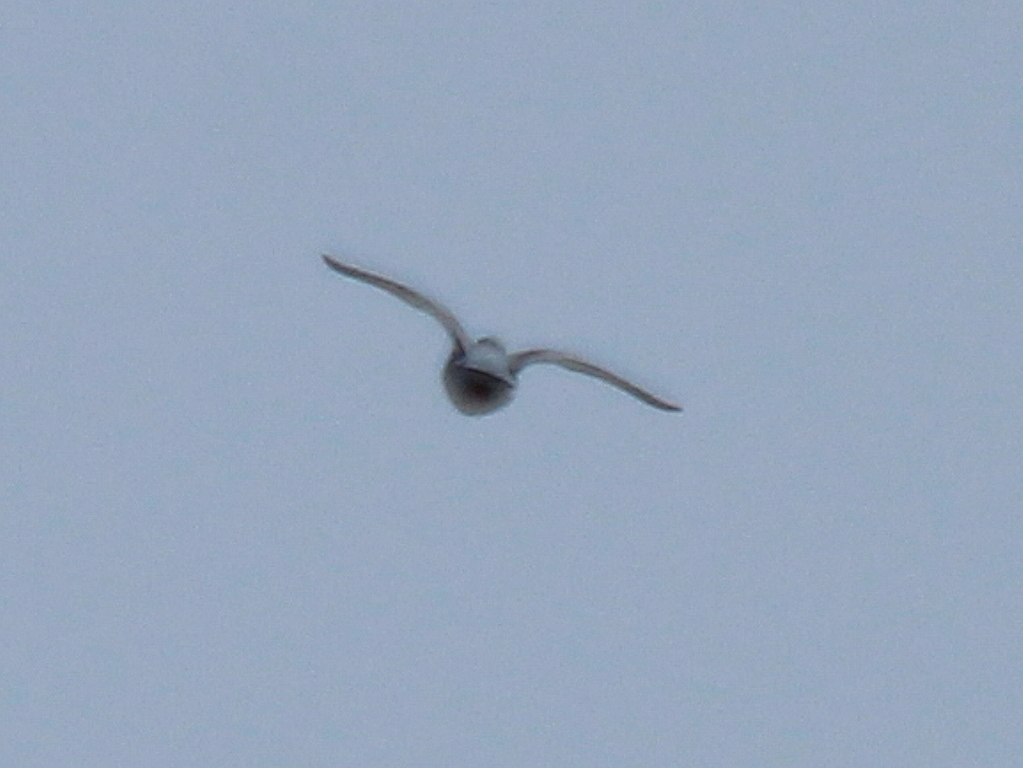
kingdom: Animalia
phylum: Chordata
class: Aves
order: Columbiformes
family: Columbidae
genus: Columba
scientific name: Columba oenas
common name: Stock dove
